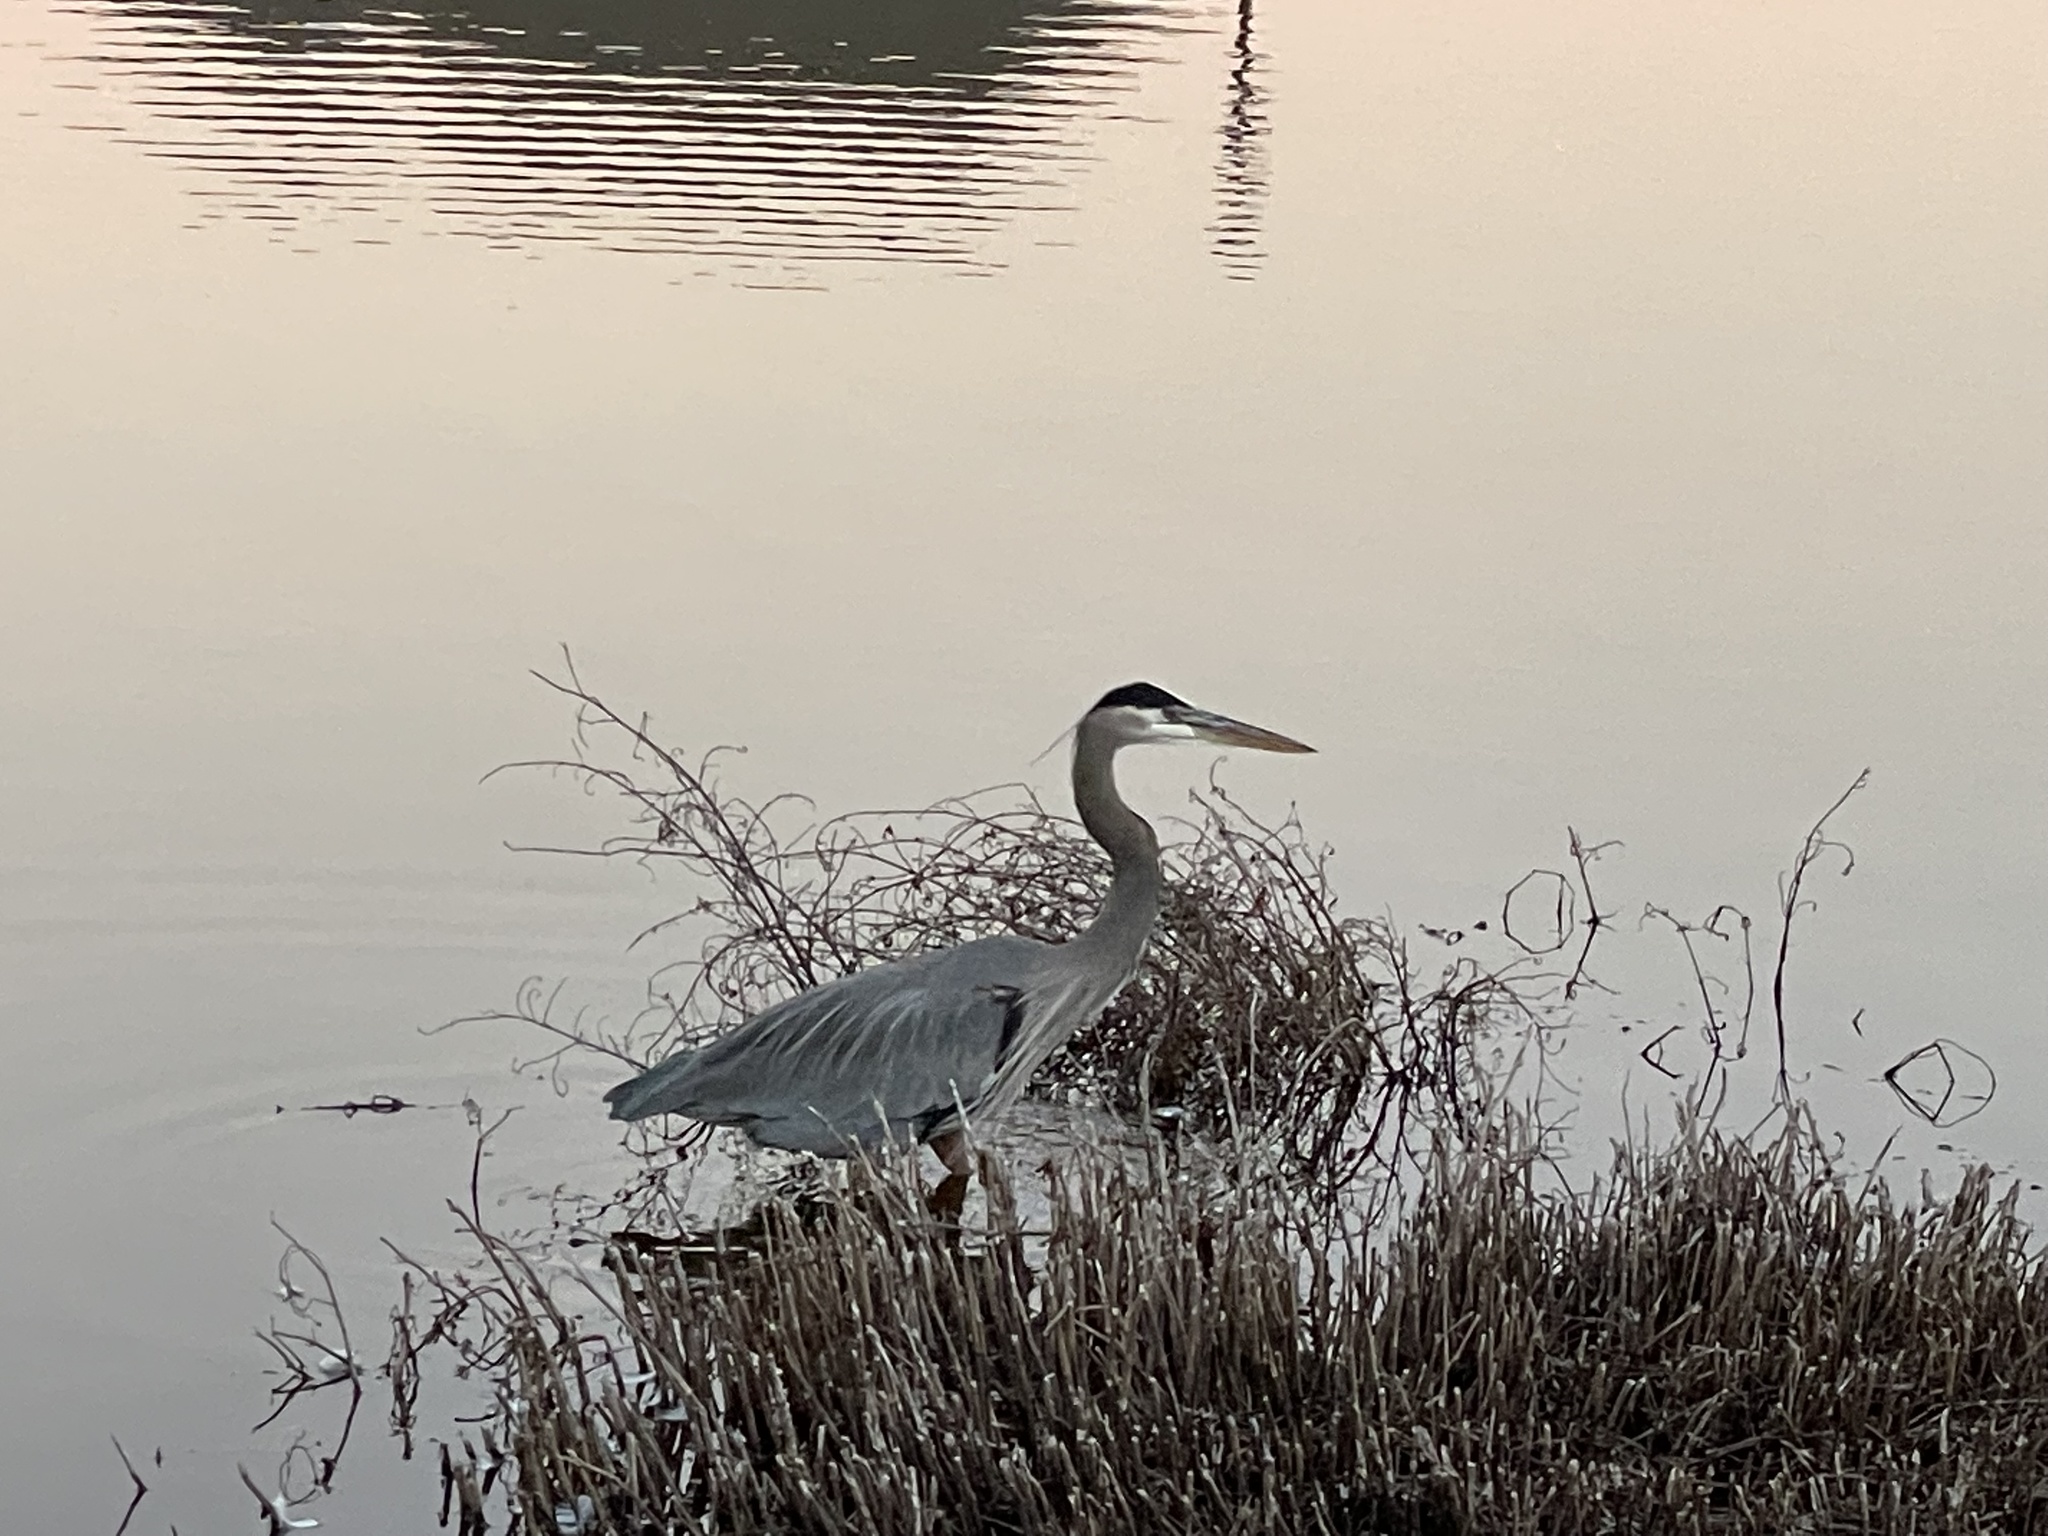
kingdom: Animalia
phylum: Chordata
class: Aves
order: Pelecaniformes
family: Ardeidae
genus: Ardea
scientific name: Ardea herodias
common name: Great blue heron
